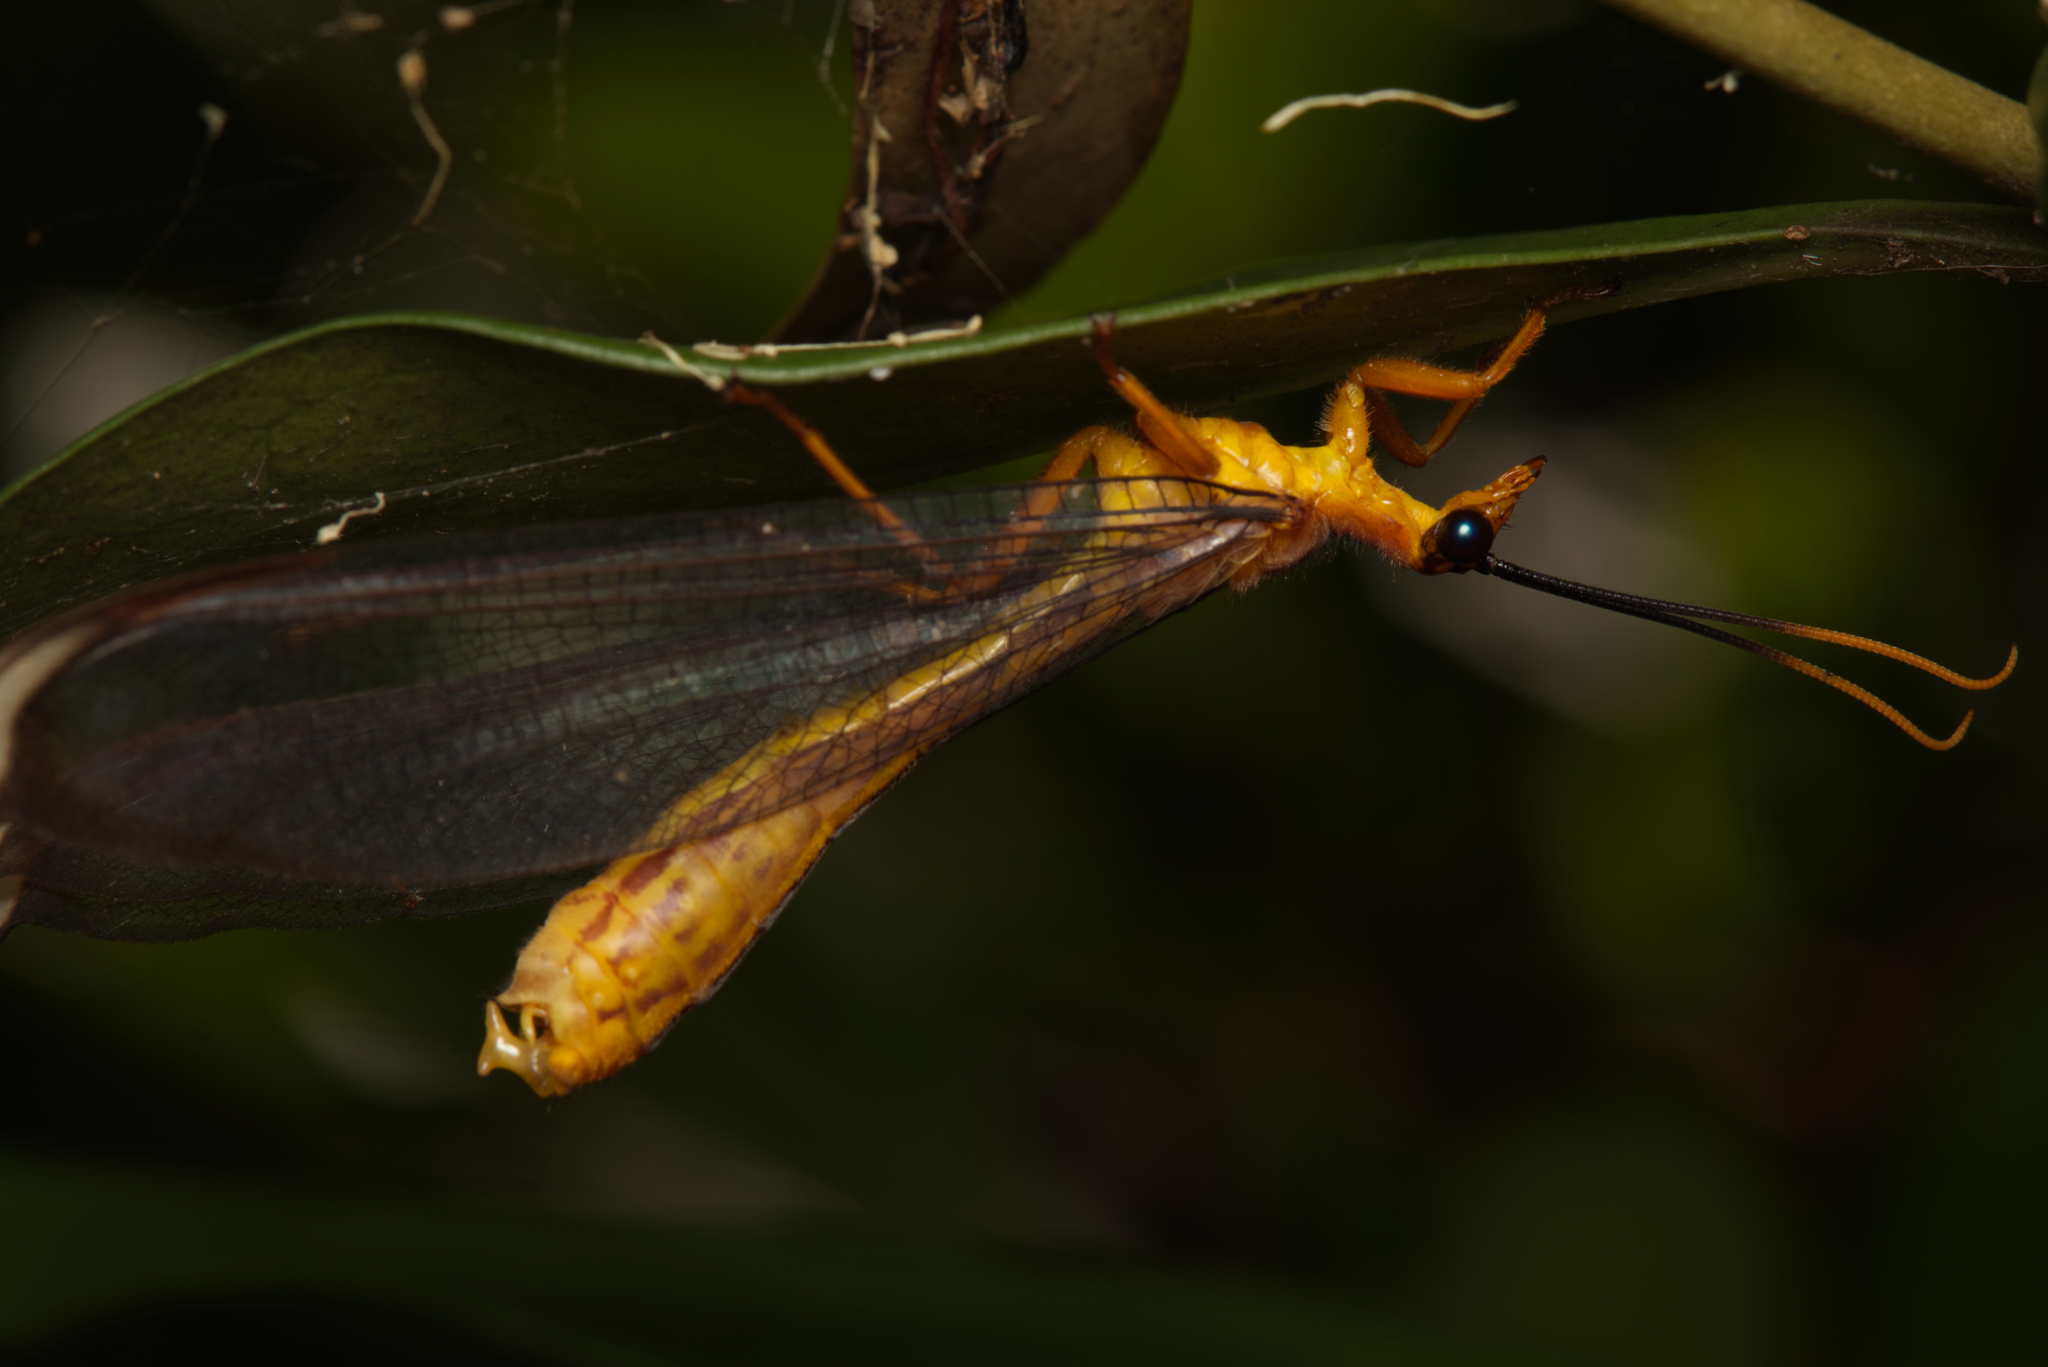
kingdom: Animalia
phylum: Arthropoda
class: Insecta
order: Neuroptera
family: Nymphidae
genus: Nymphes
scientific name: Nymphes myrmeleonoides
